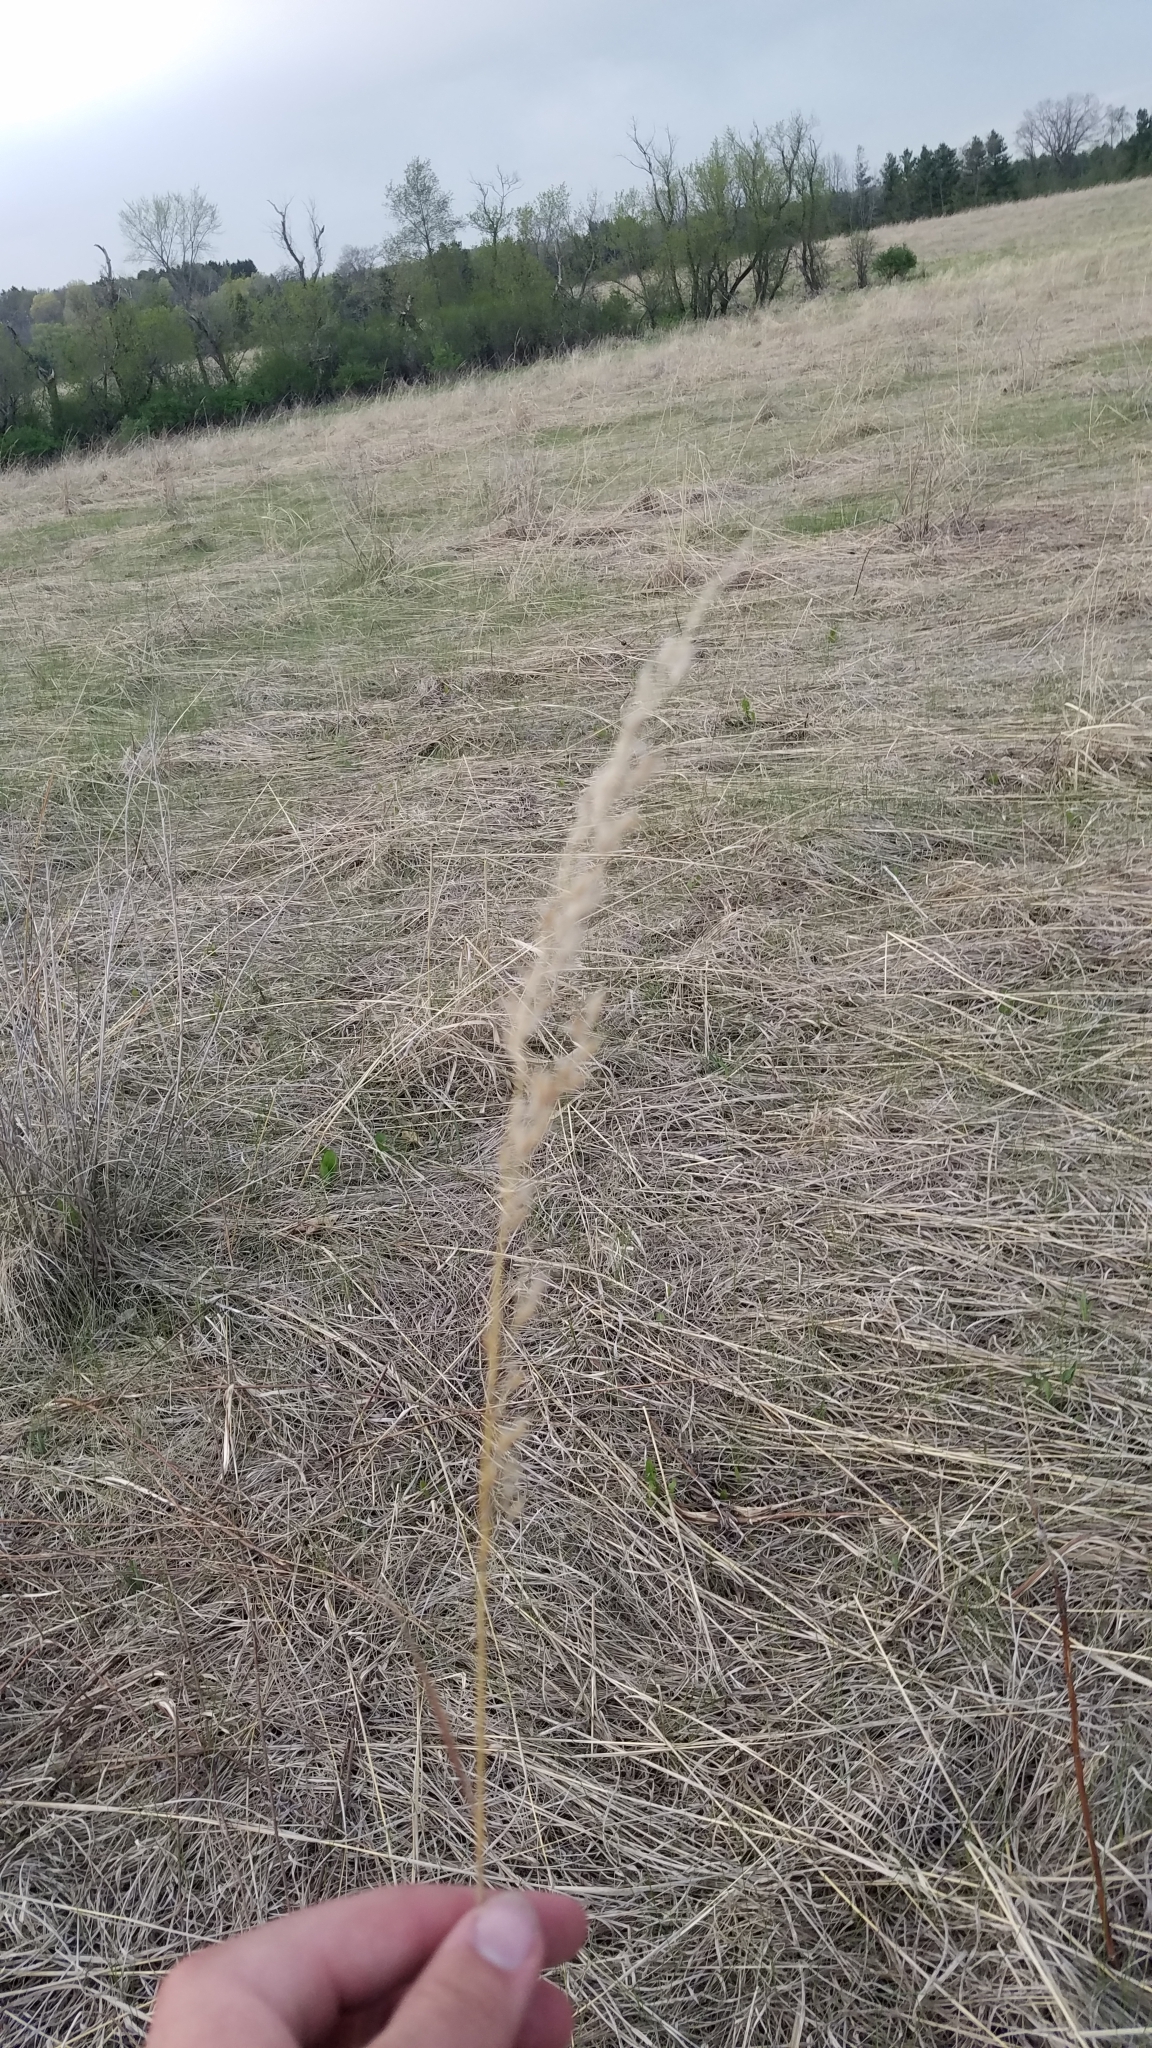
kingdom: Plantae
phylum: Tracheophyta
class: Liliopsida
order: Poales
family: Poaceae
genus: Sorghastrum
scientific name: Sorghastrum nutans
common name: Indian grass
